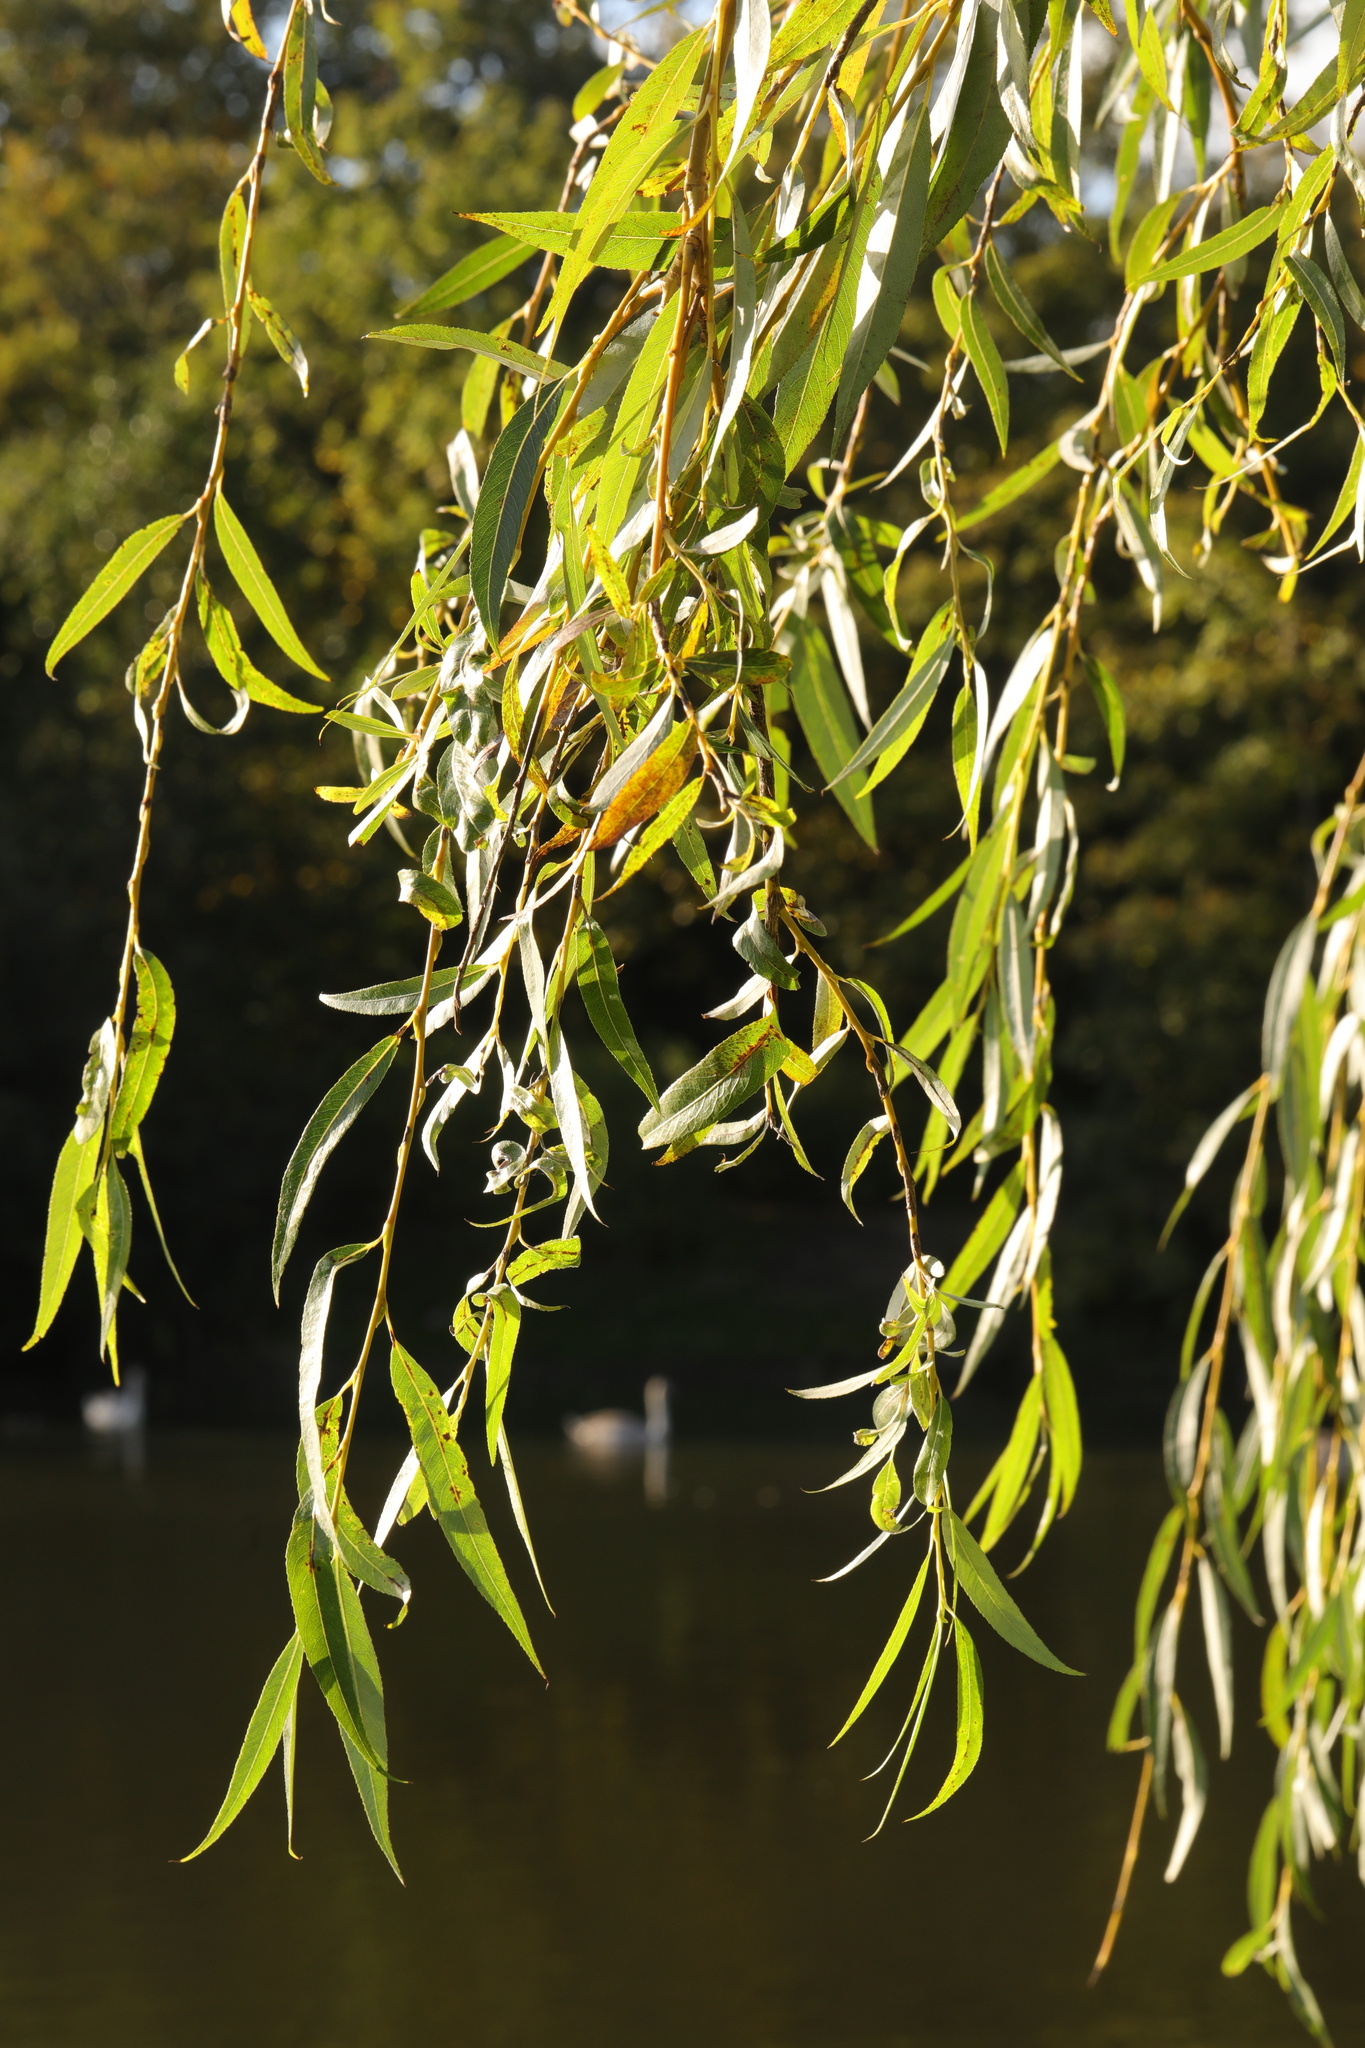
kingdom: Plantae
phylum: Tracheophyta
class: Magnoliopsida
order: Malpighiales
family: Salicaceae
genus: Salix
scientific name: Salix pendulina
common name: Wisconsin weeping willow
